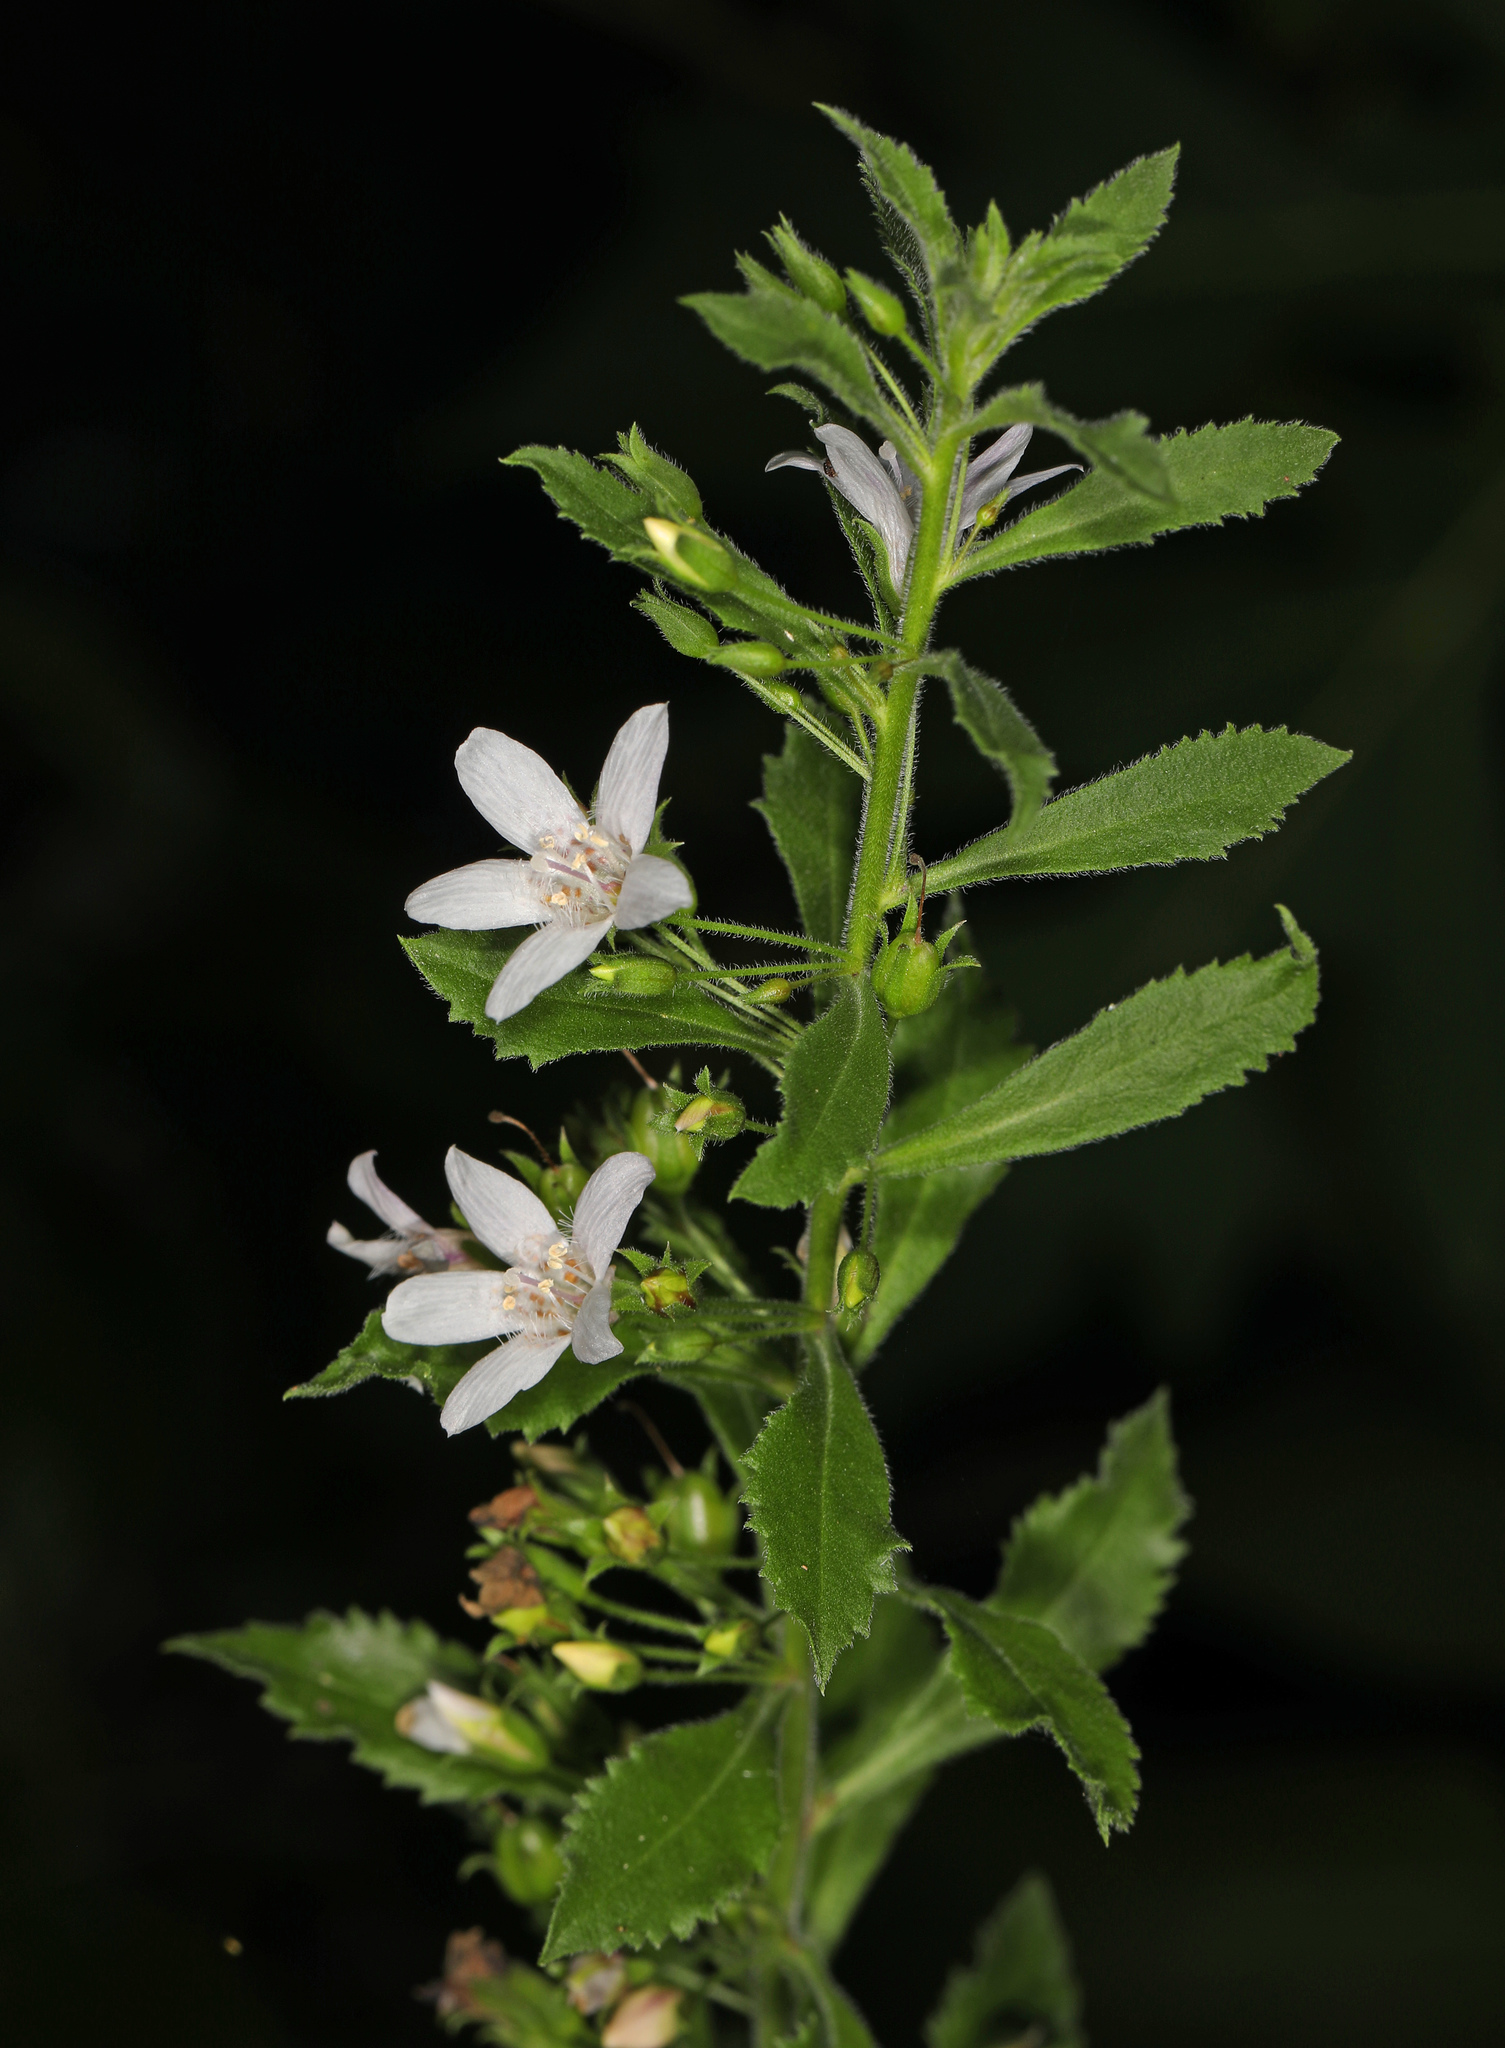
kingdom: Plantae
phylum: Tracheophyta
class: Magnoliopsida
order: Lamiales
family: Scrophulariaceae
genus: Capraria
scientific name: Capraria biflora
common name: Goatweed
